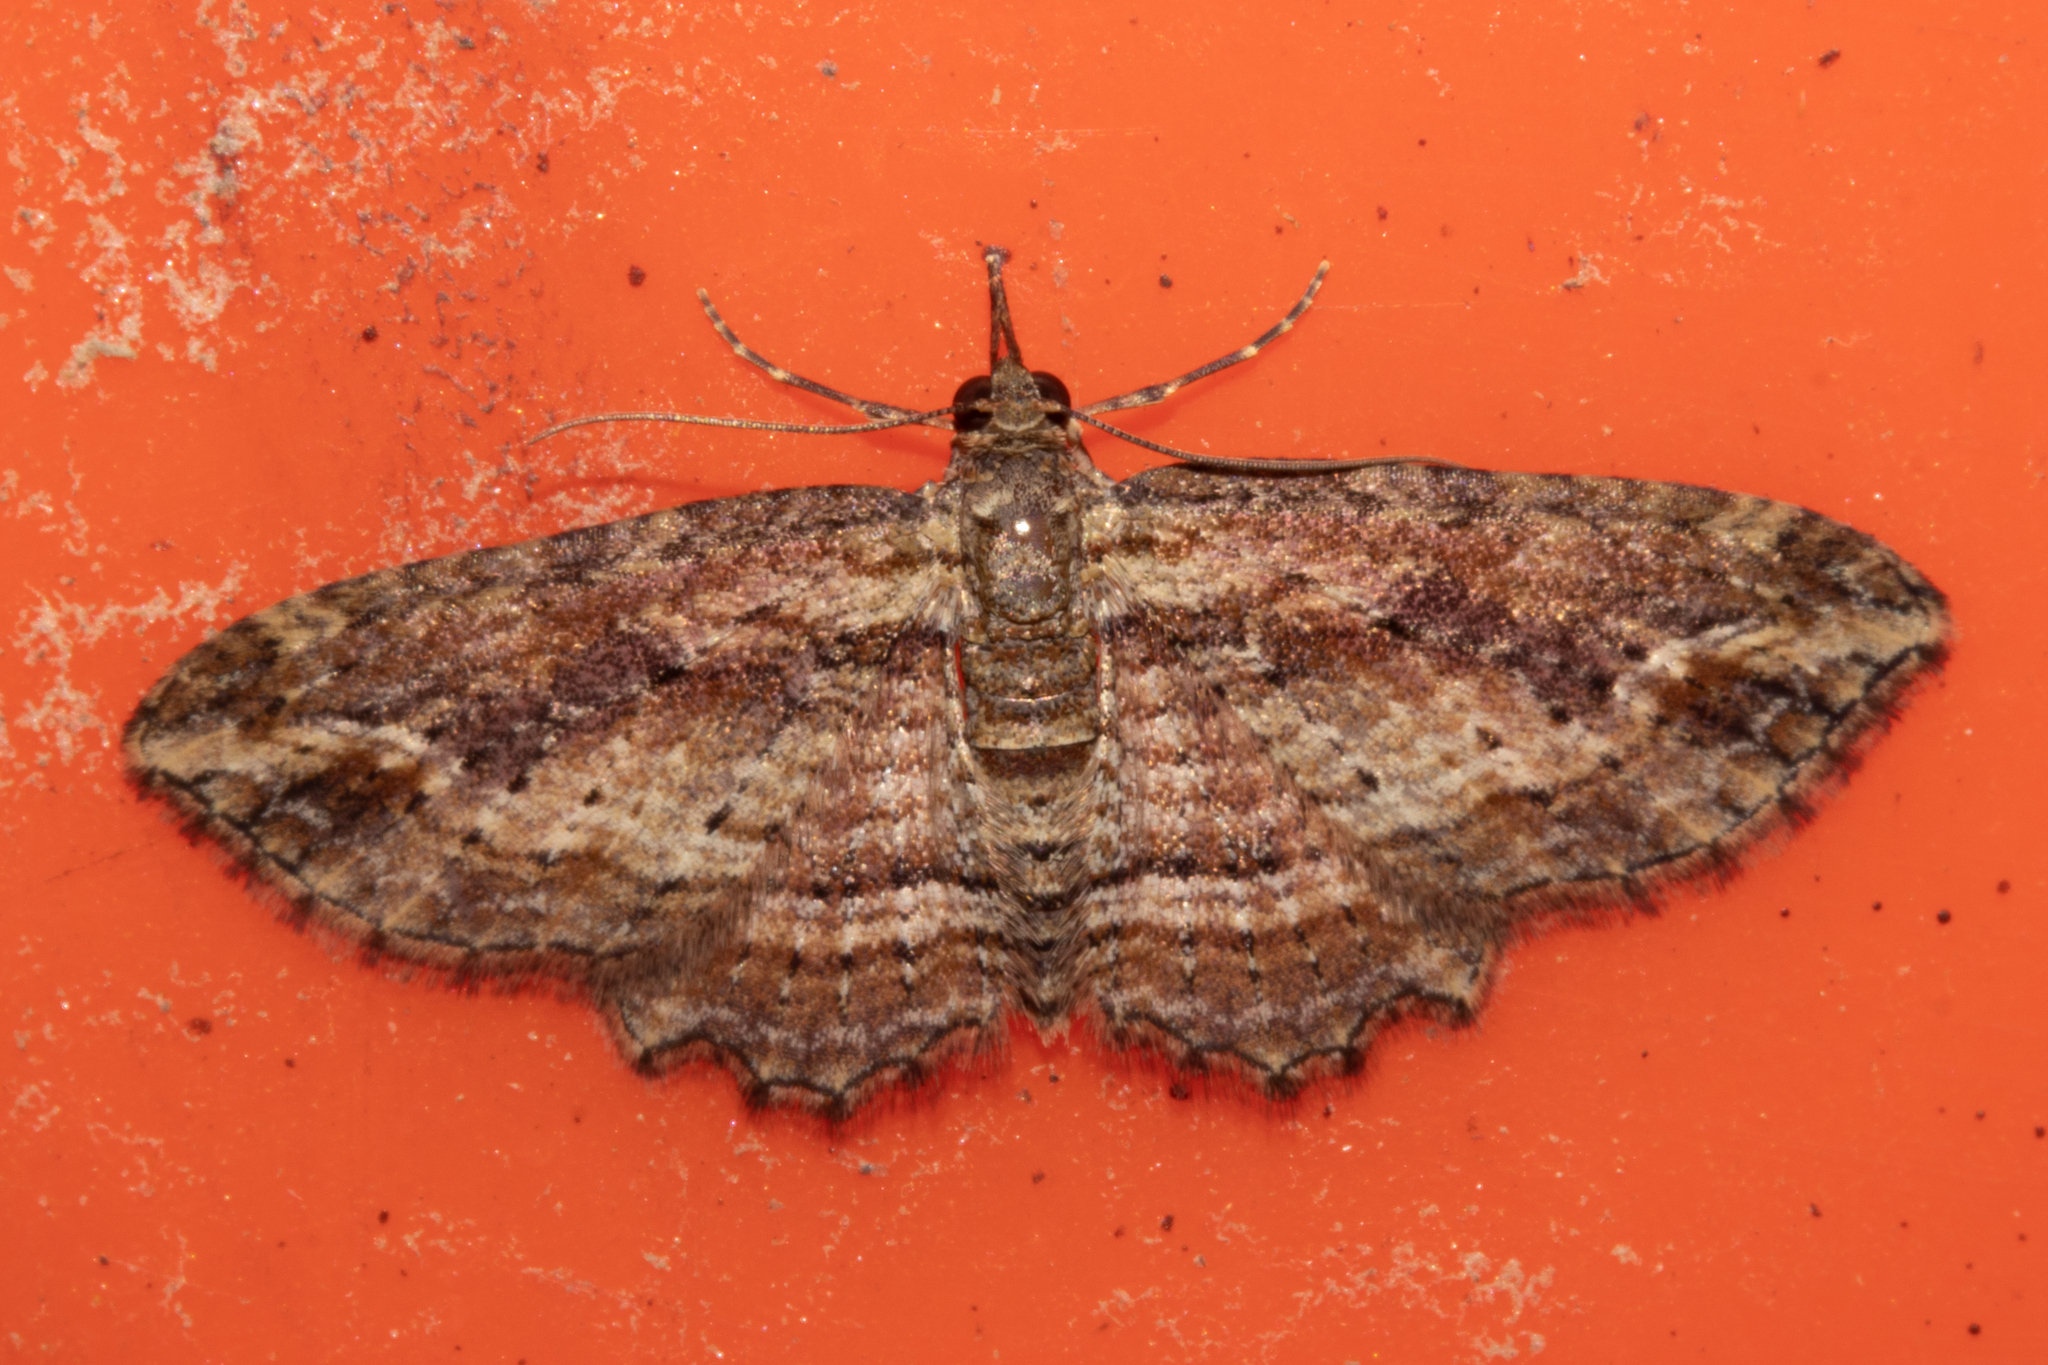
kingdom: Animalia
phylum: Arthropoda
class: Insecta
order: Lepidoptera
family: Geometridae
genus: Chloroclystis
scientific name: Chloroclystis filata
